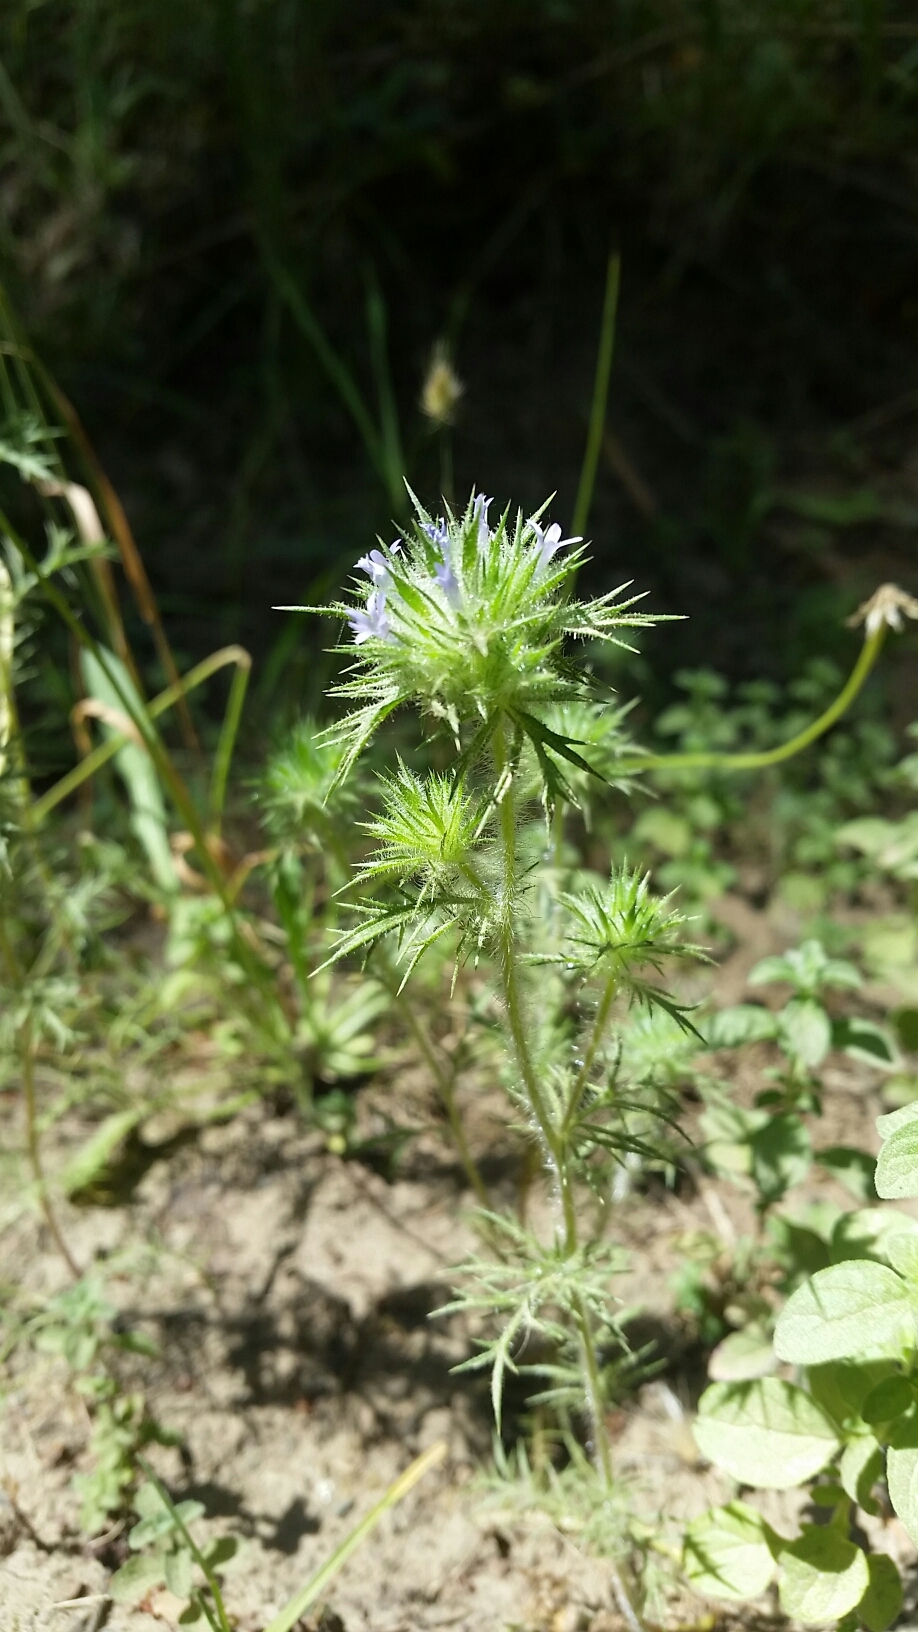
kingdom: Plantae
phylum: Tracheophyta
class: Magnoliopsida
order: Ericales
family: Polemoniaceae
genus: Navarretia
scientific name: Navarretia squarrosa
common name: Skunkweed
